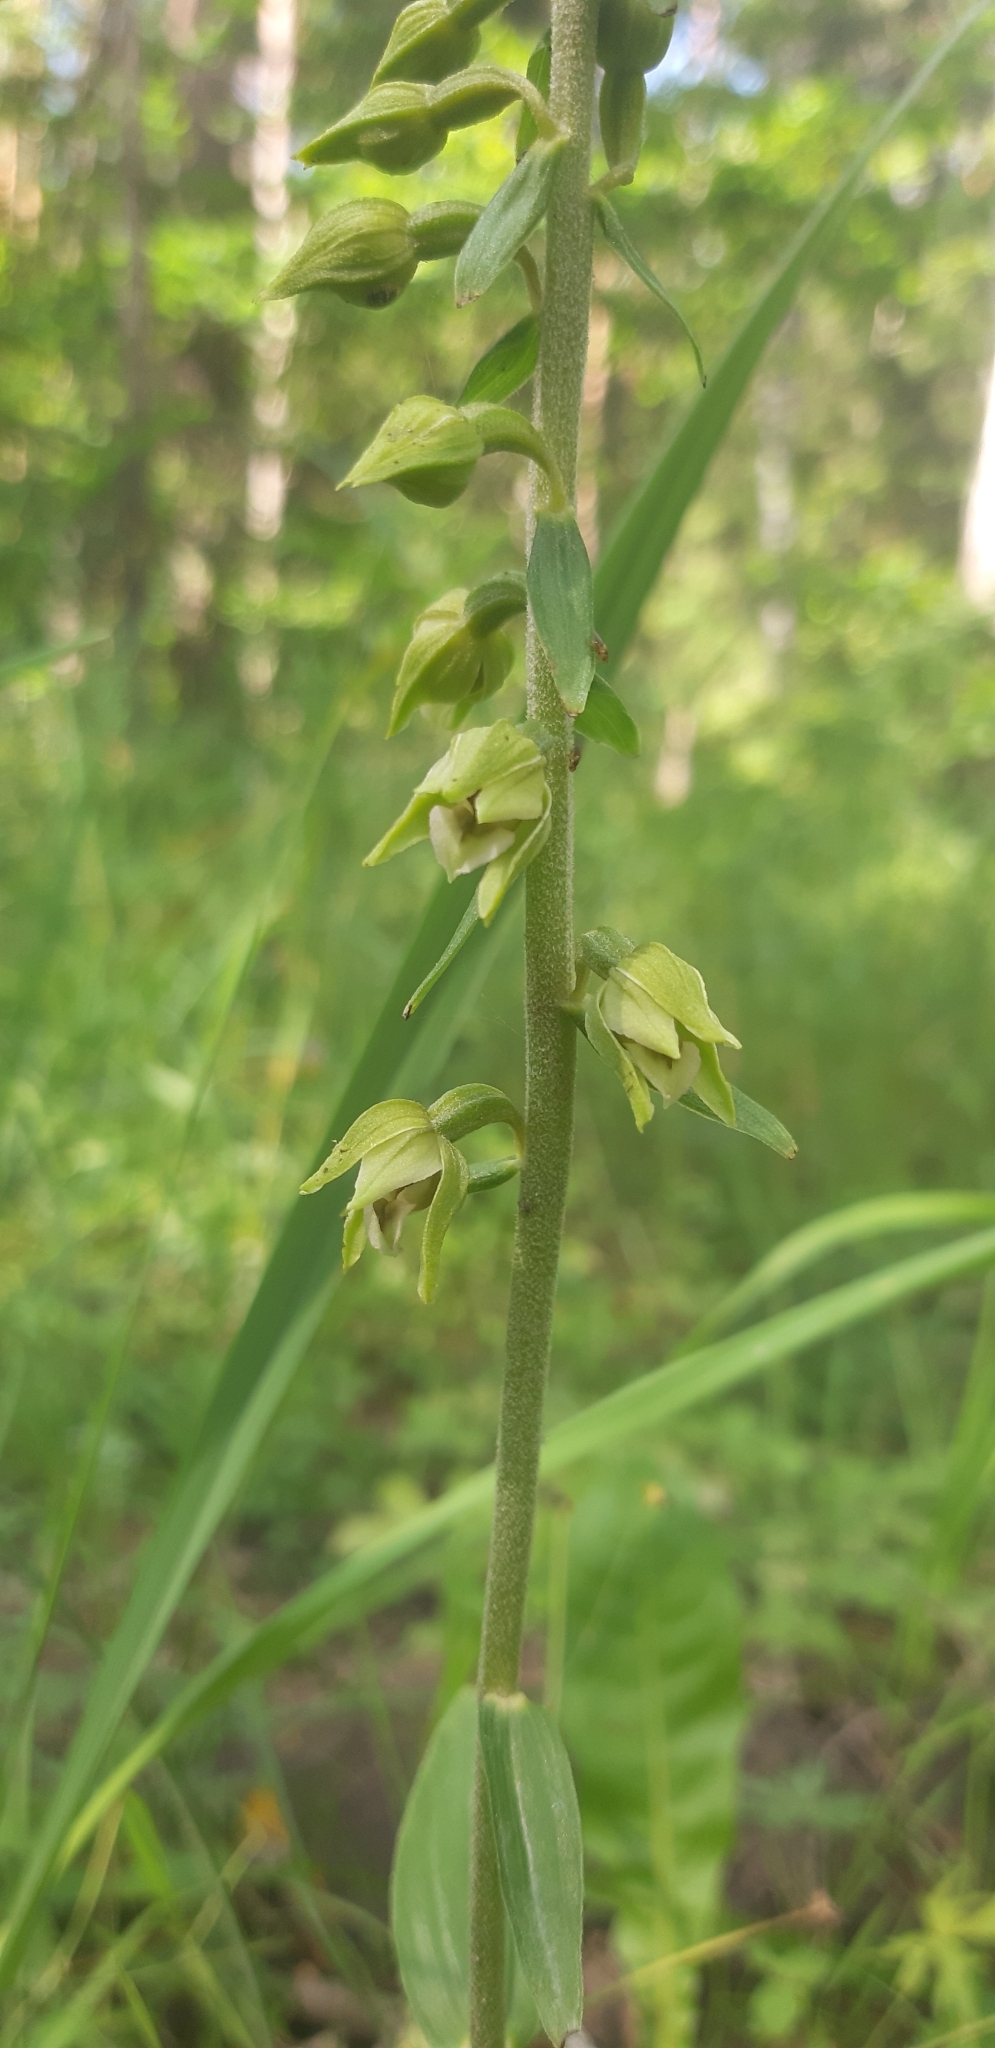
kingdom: Plantae
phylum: Tracheophyta
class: Liliopsida
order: Asparagales
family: Orchidaceae
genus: Epipactis
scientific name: Epipactis helleborine
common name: Broad-leaved helleborine
